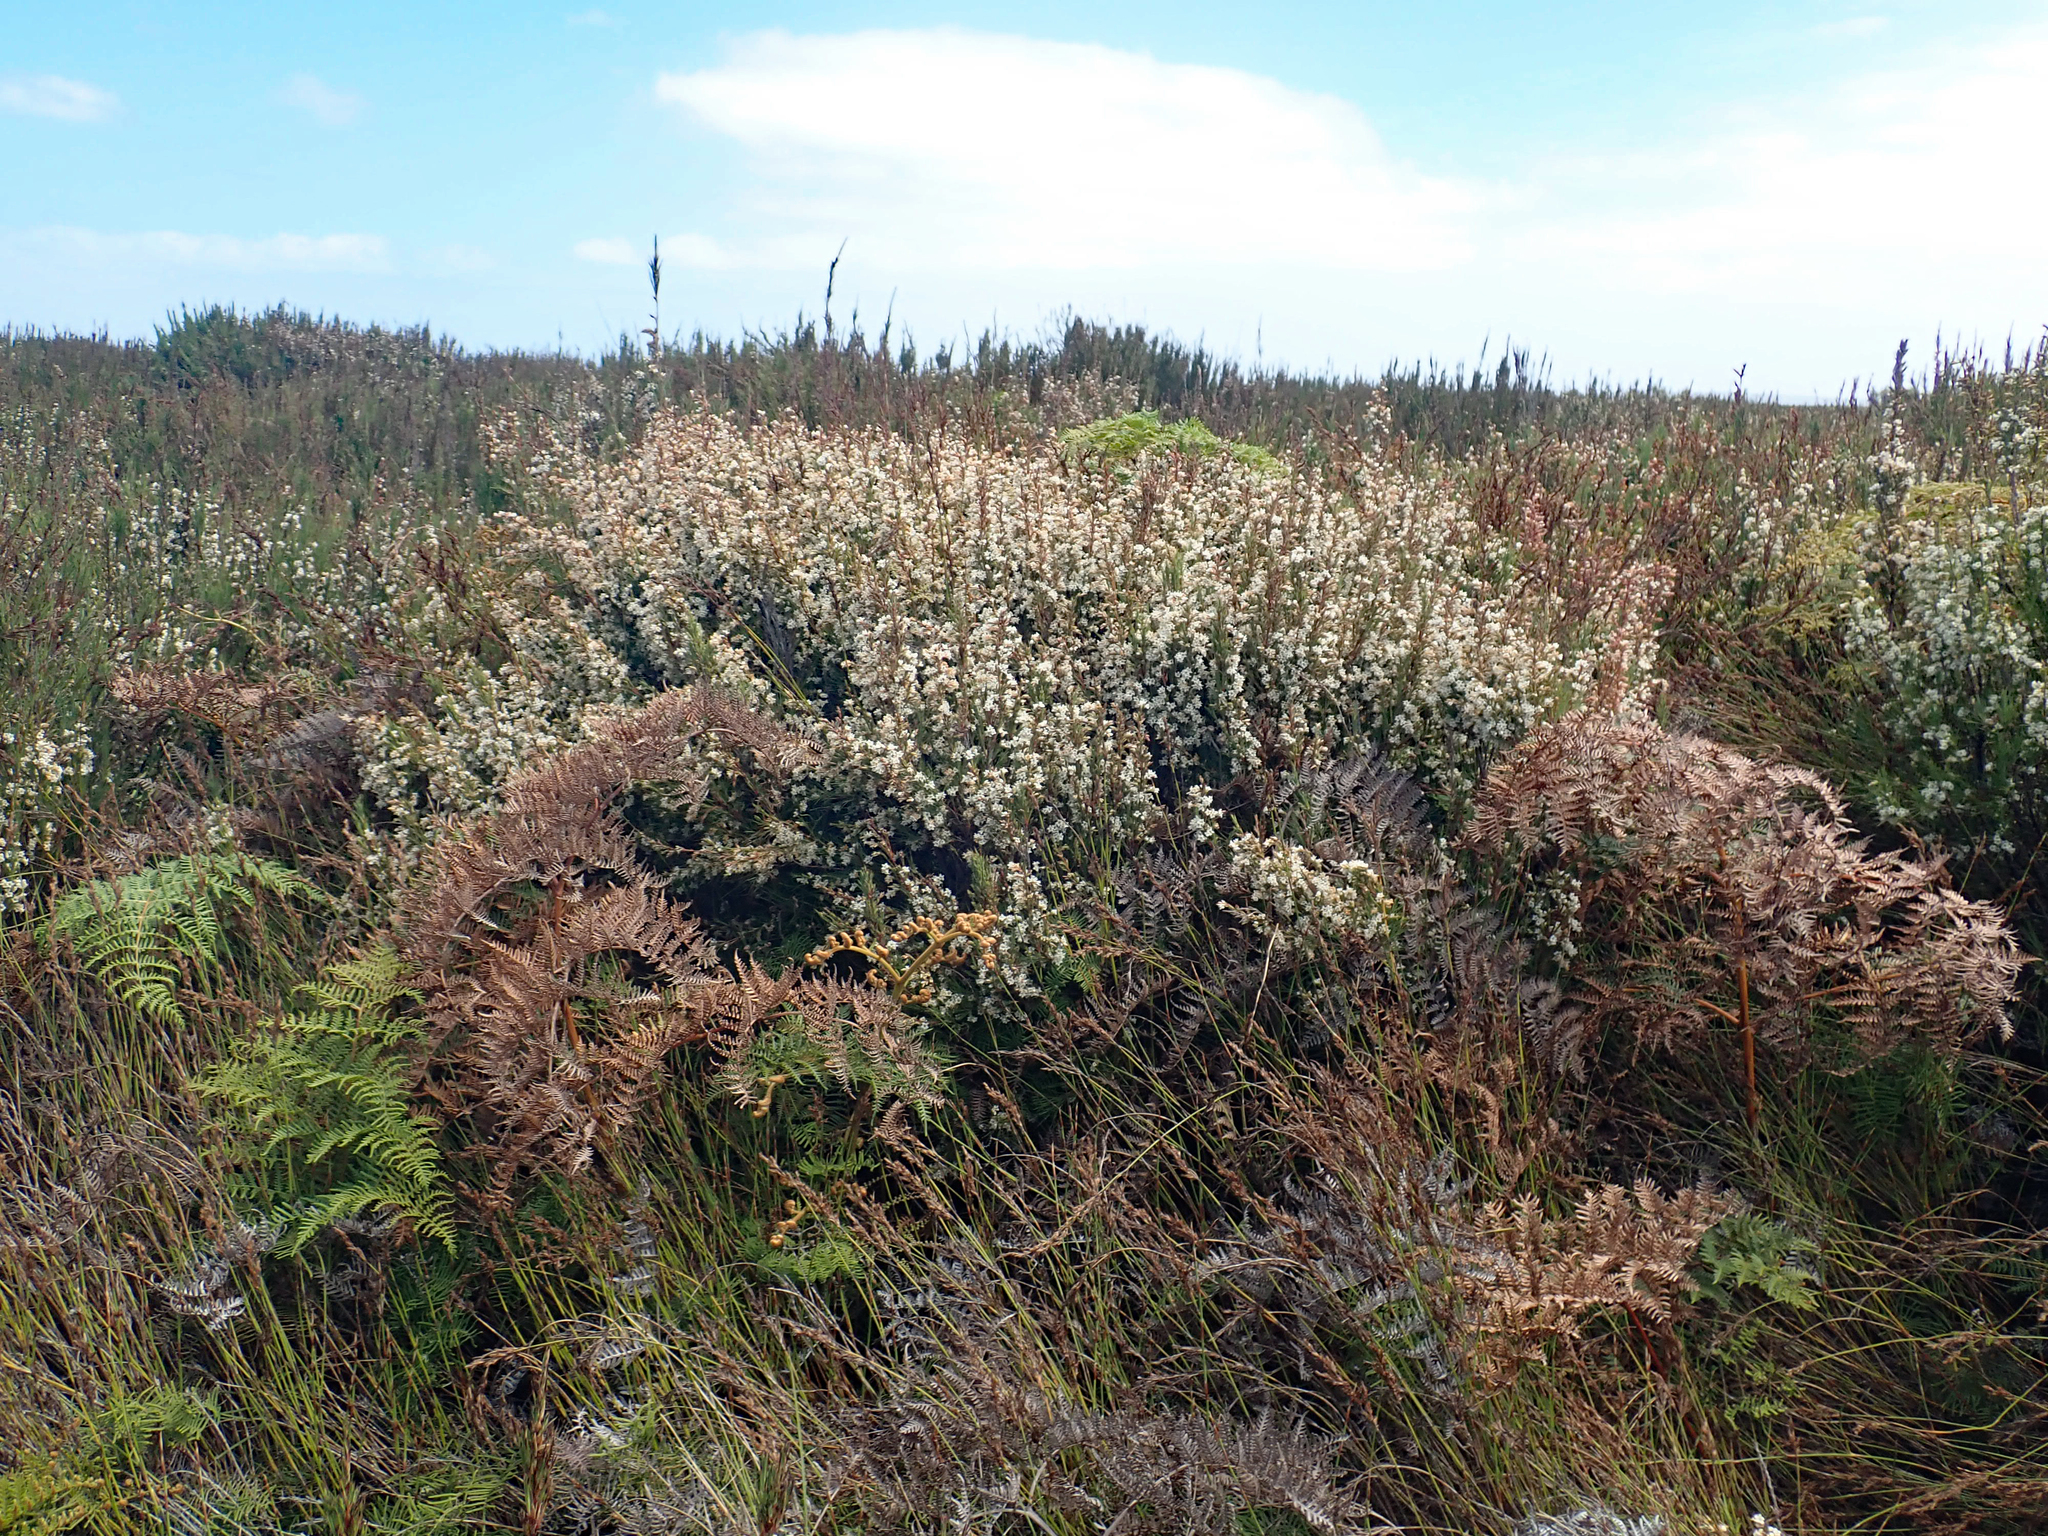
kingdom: Plantae
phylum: Tracheophyta
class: Magnoliopsida
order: Ericales
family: Ericaceae
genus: Dracophyllum
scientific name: Dracophyllum scoparium
